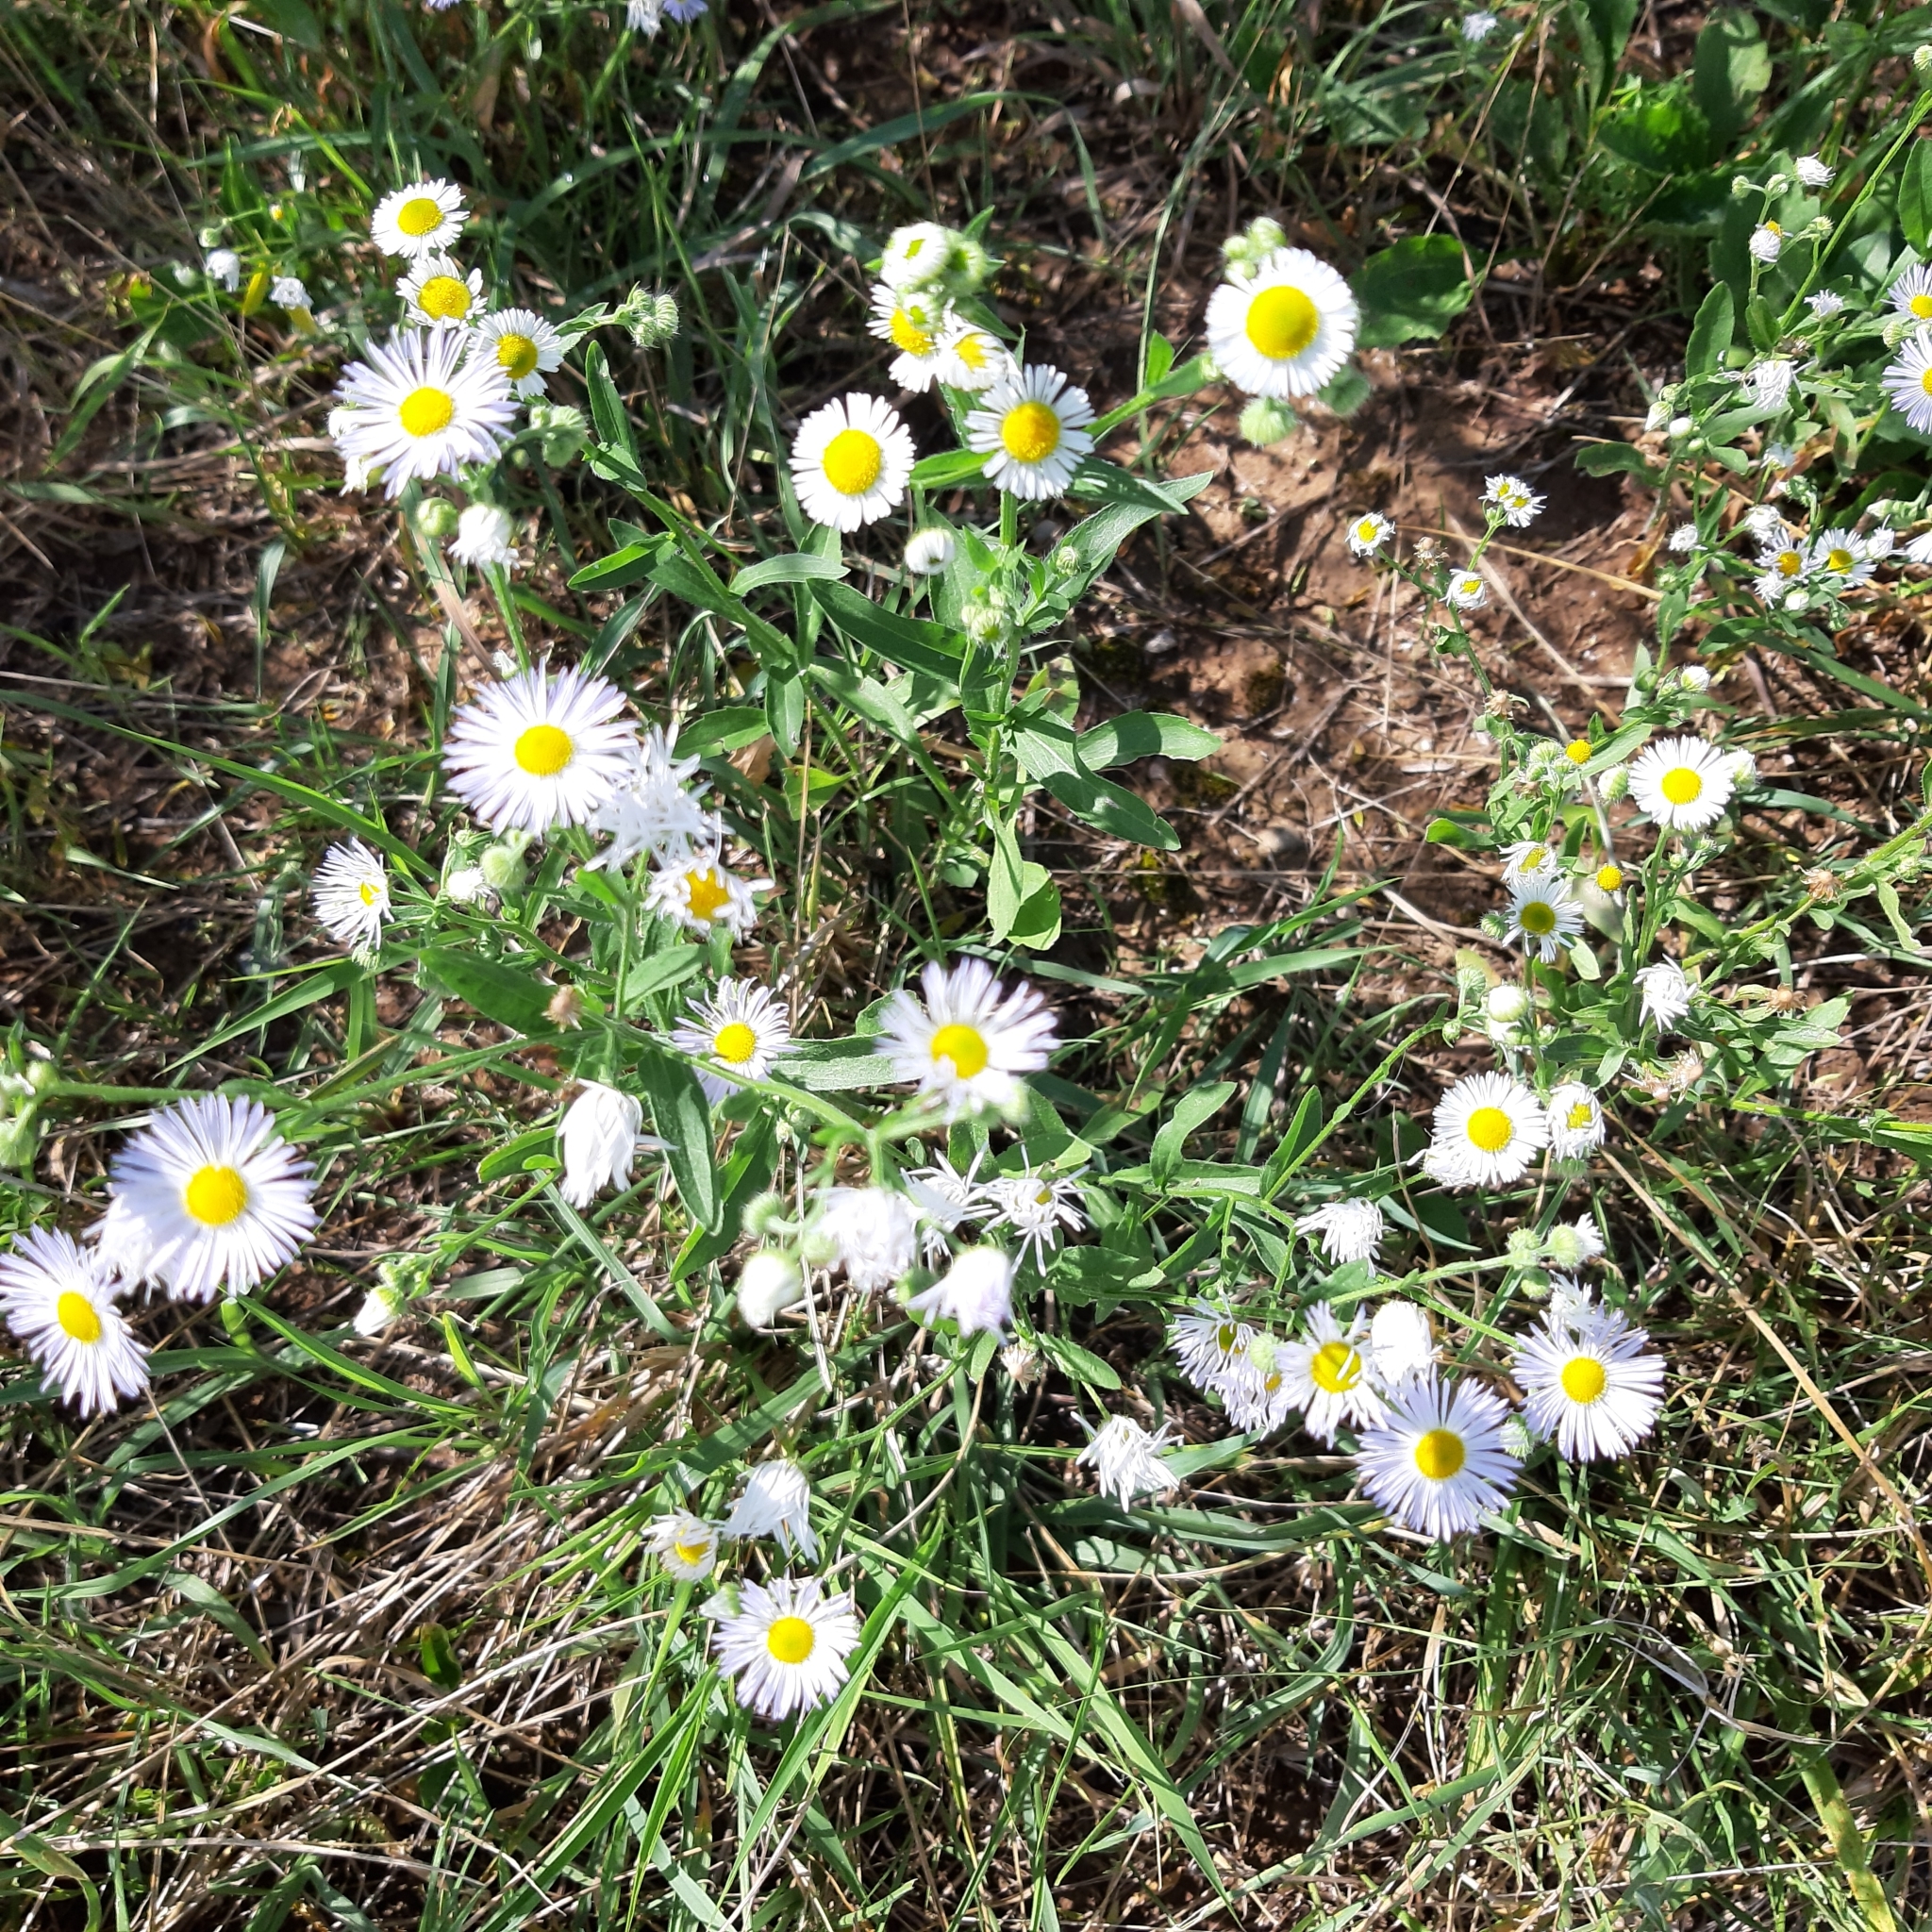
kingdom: Plantae
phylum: Tracheophyta
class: Magnoliopsida
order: Asterales
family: Asteraceae
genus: Erigeron
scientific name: Erigeron annuus
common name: Tall fleabane
